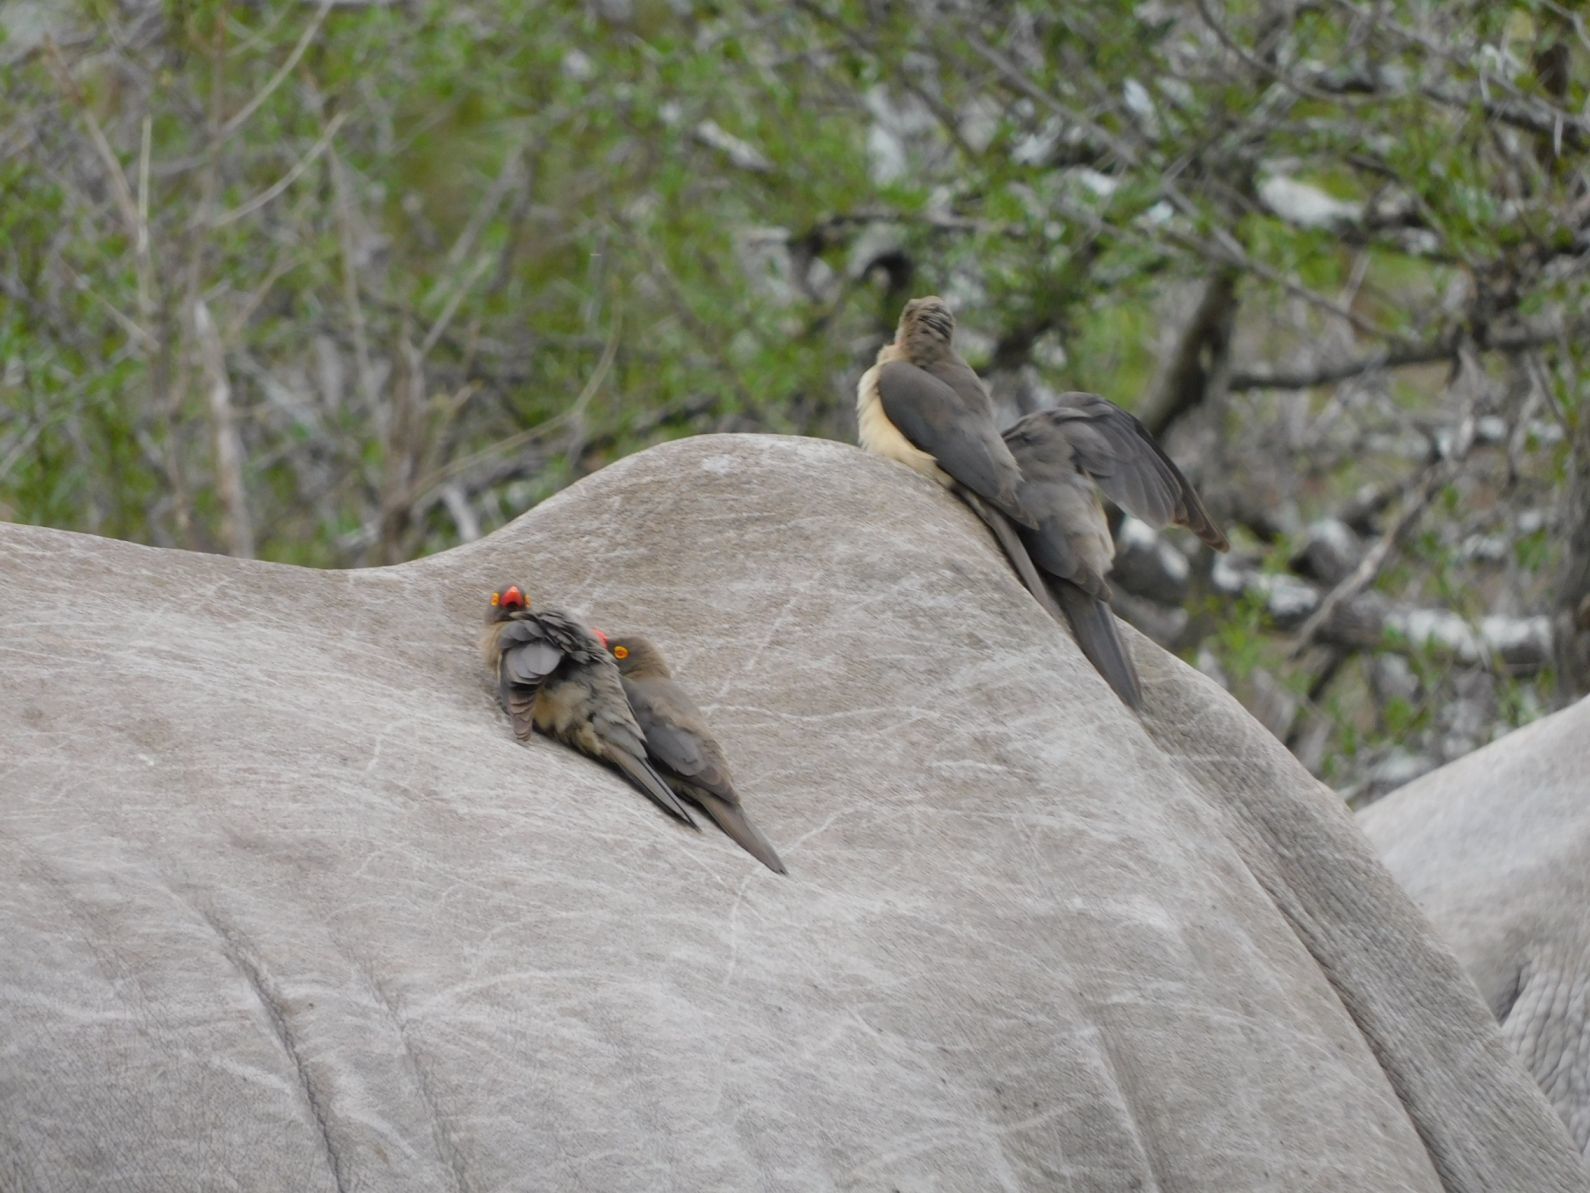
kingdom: Animalia
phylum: Chordata
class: Aves
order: Passeriformes
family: Buphagidae
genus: Buphagus
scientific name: Buphagus erythrorhynchus
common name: Red-billed oxpecker
